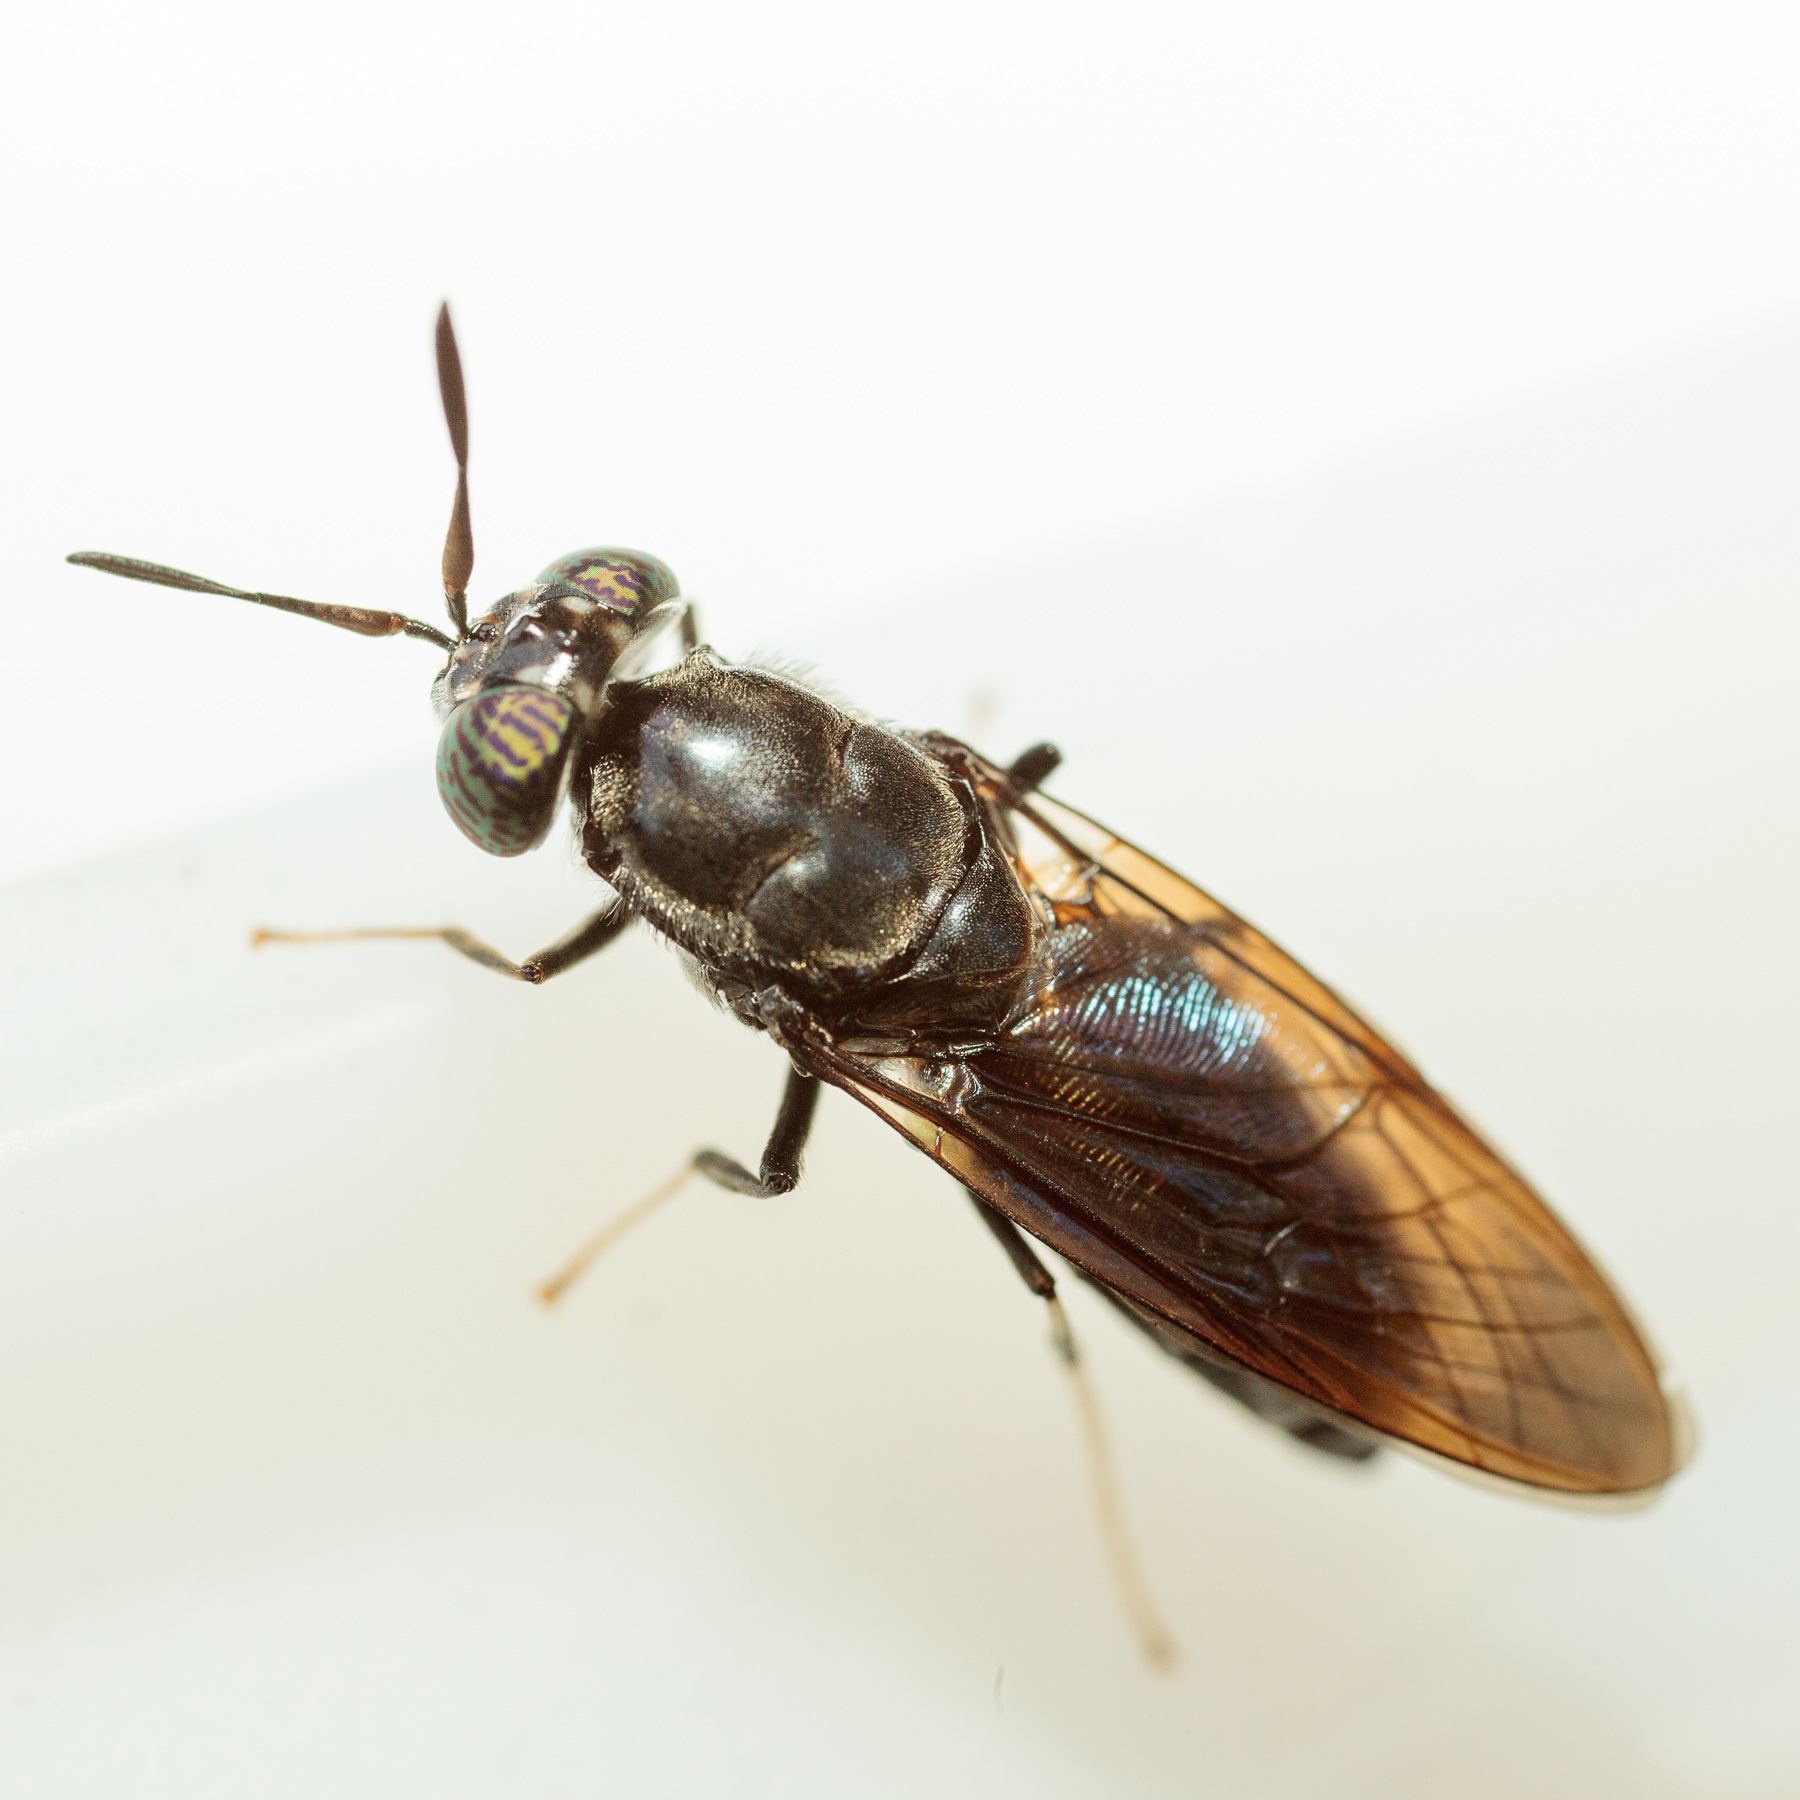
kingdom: Animalia
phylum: Arthropoda
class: Insecta
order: Diptera
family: Stratiomyidae
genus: Hermetia
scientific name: Hermetia illucens
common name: Black soldier fly
